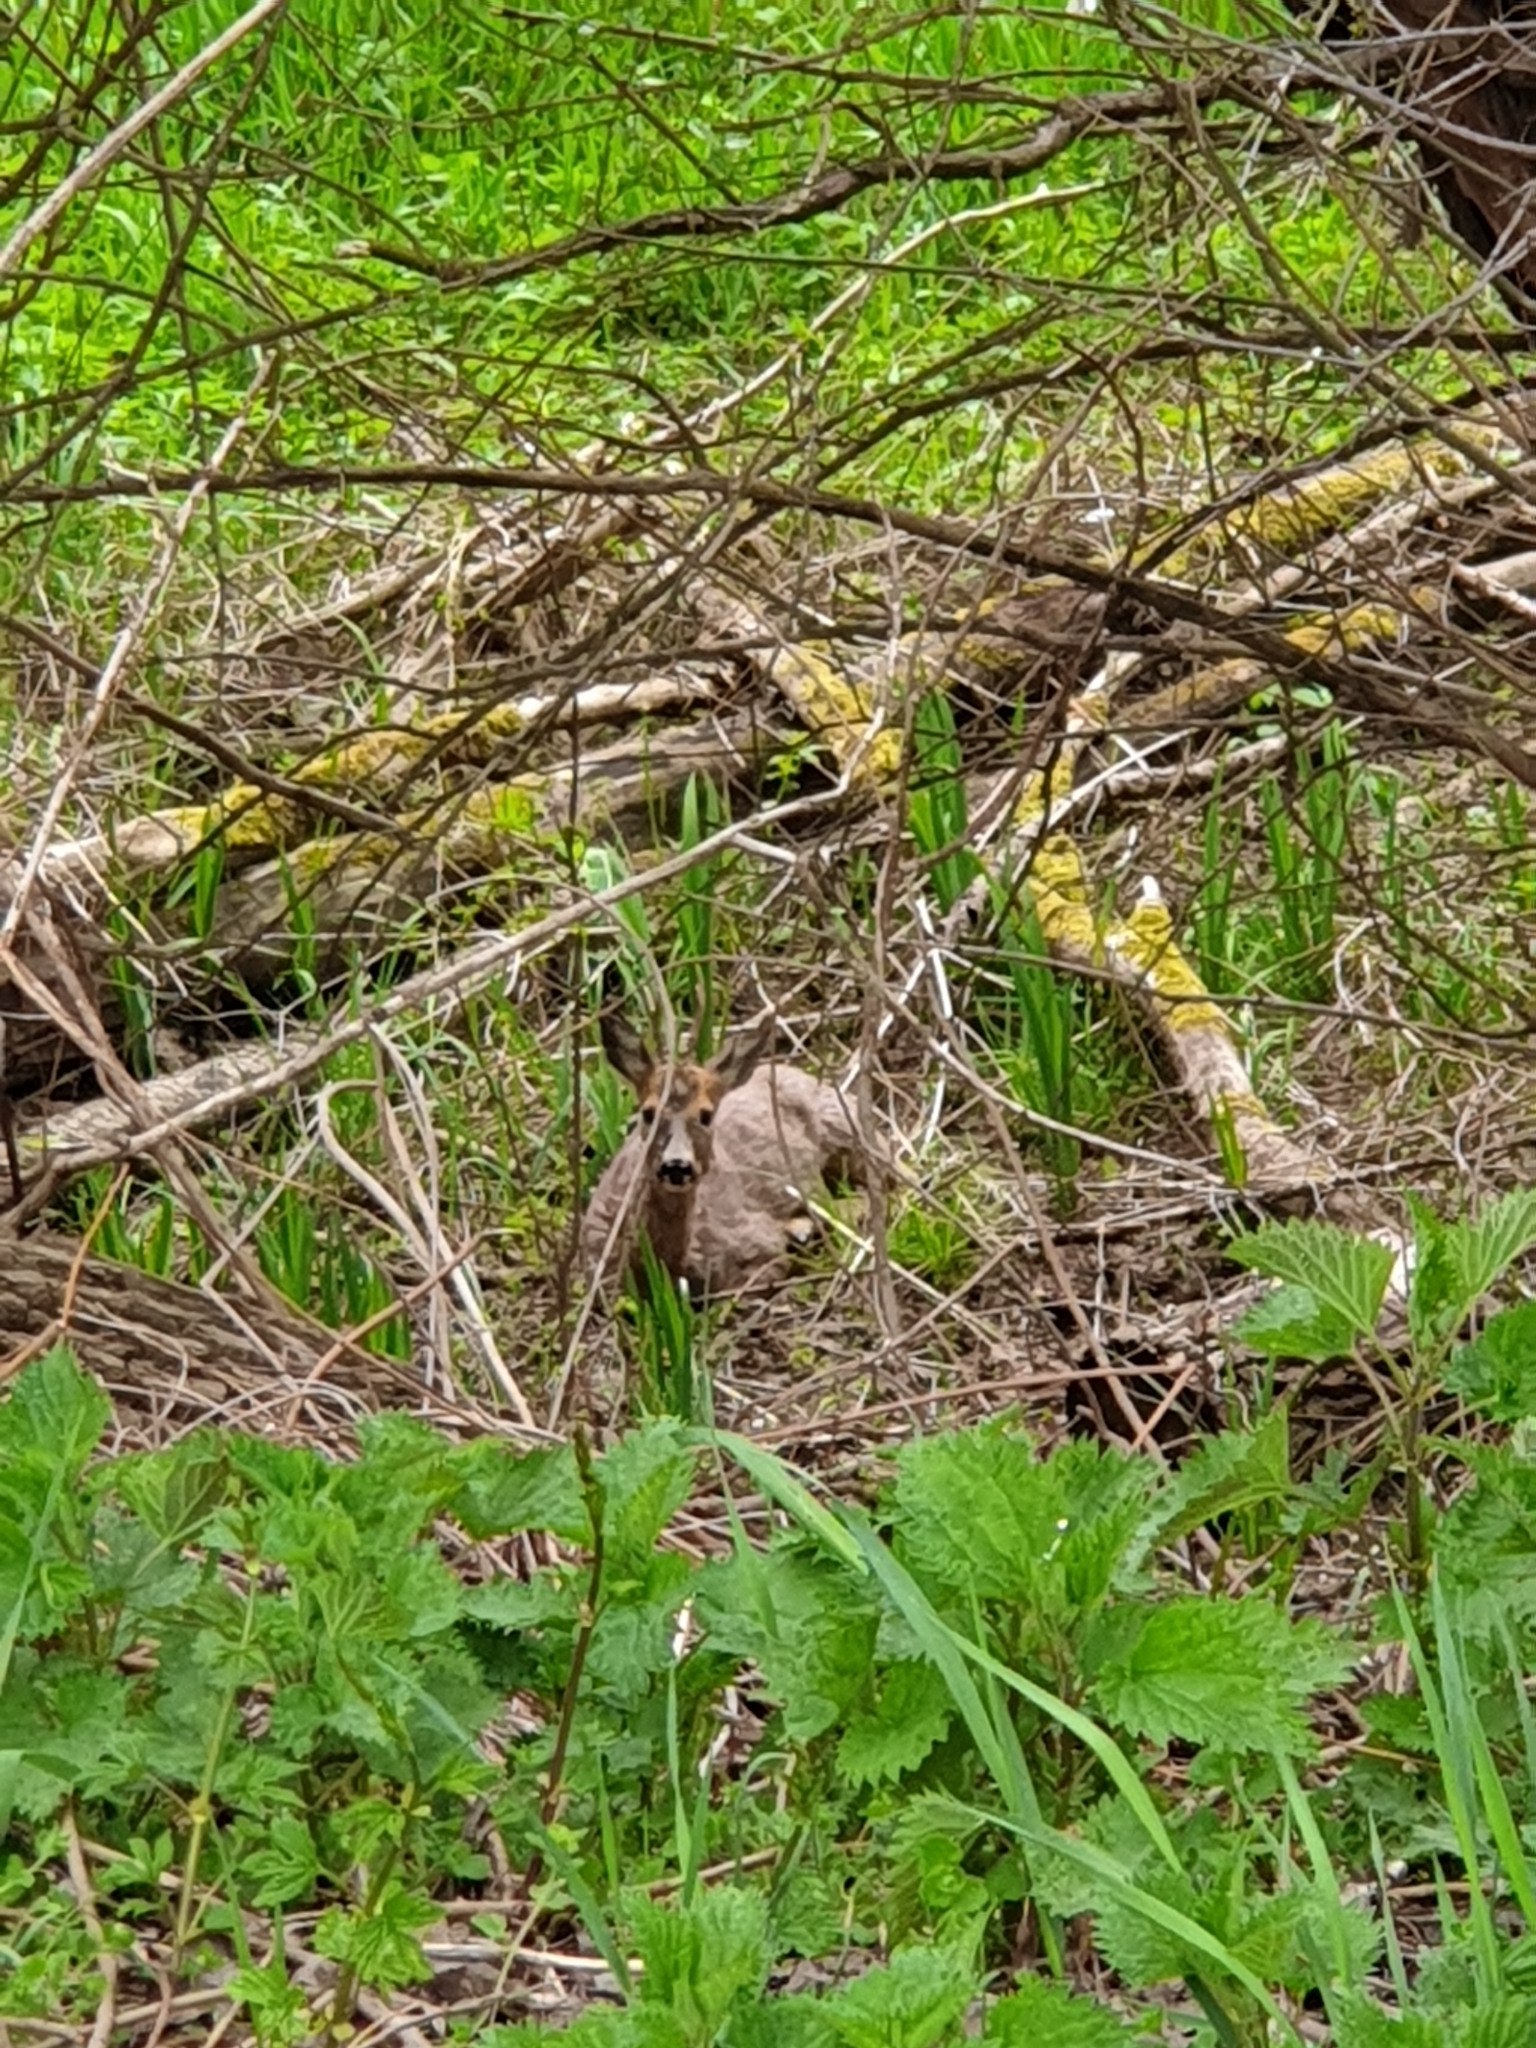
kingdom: Animalia
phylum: Chordata
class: Mammalia
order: Artiodactyla
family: Cervidae
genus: Capreolus
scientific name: Capreolus capreolus
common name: Western roe deer
